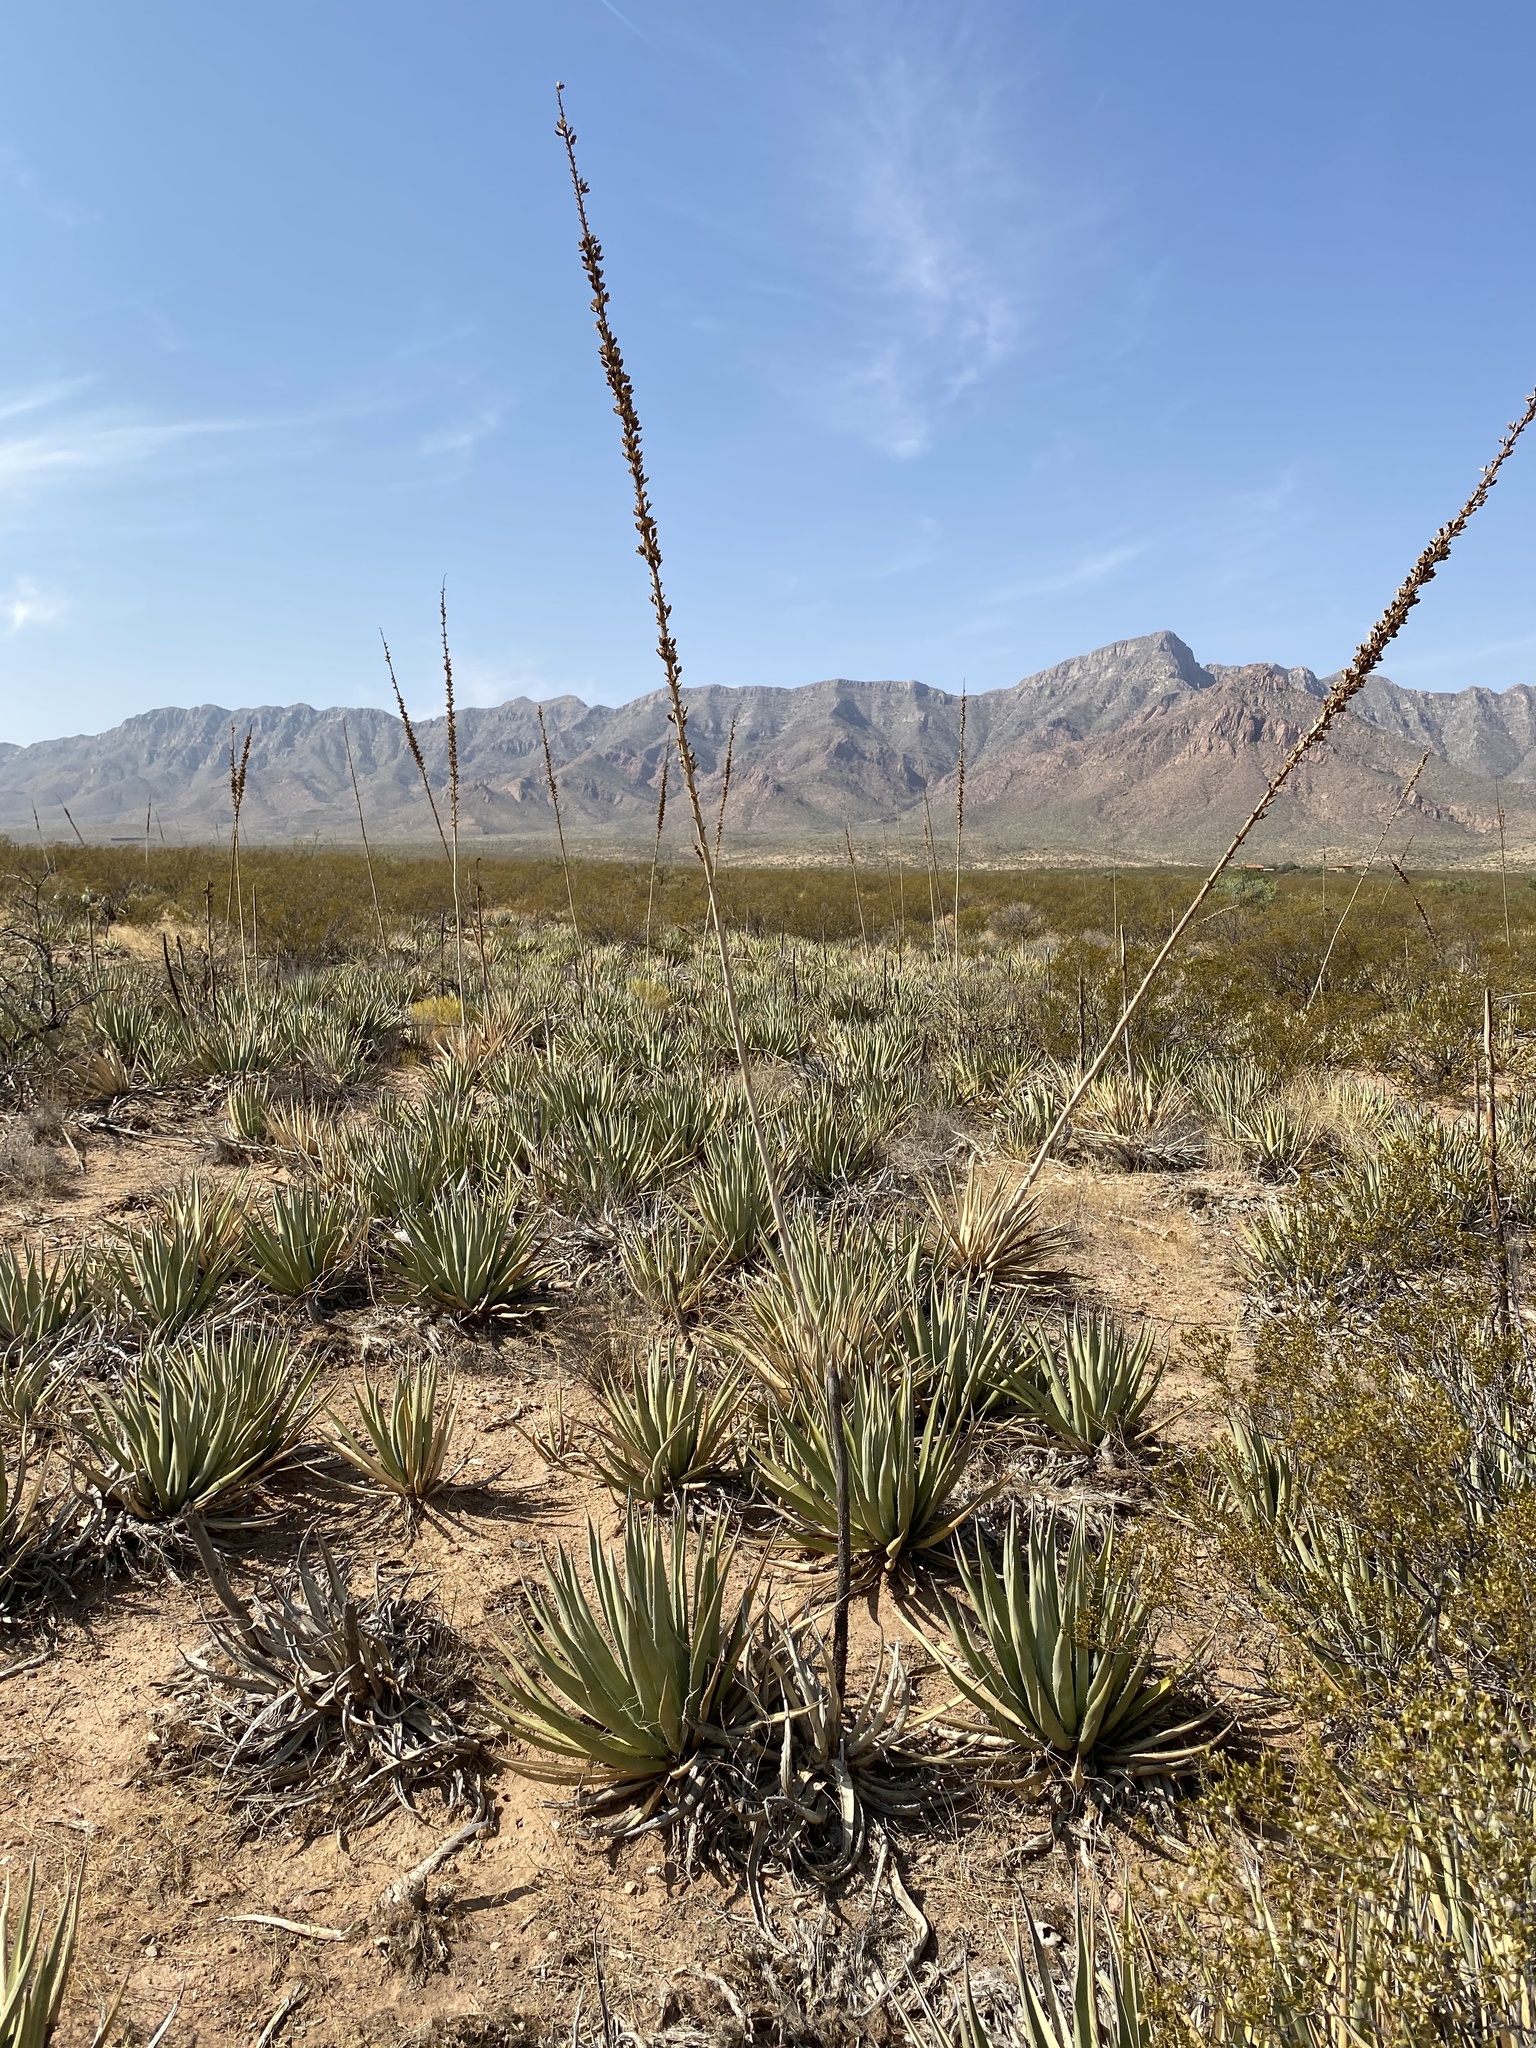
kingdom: Plantae
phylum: Tracheophyta
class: Liliopsida
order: Asparagales
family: Asparagaceae
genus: Agave
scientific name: Agave lechuguilla
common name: Lecheguilla agave
